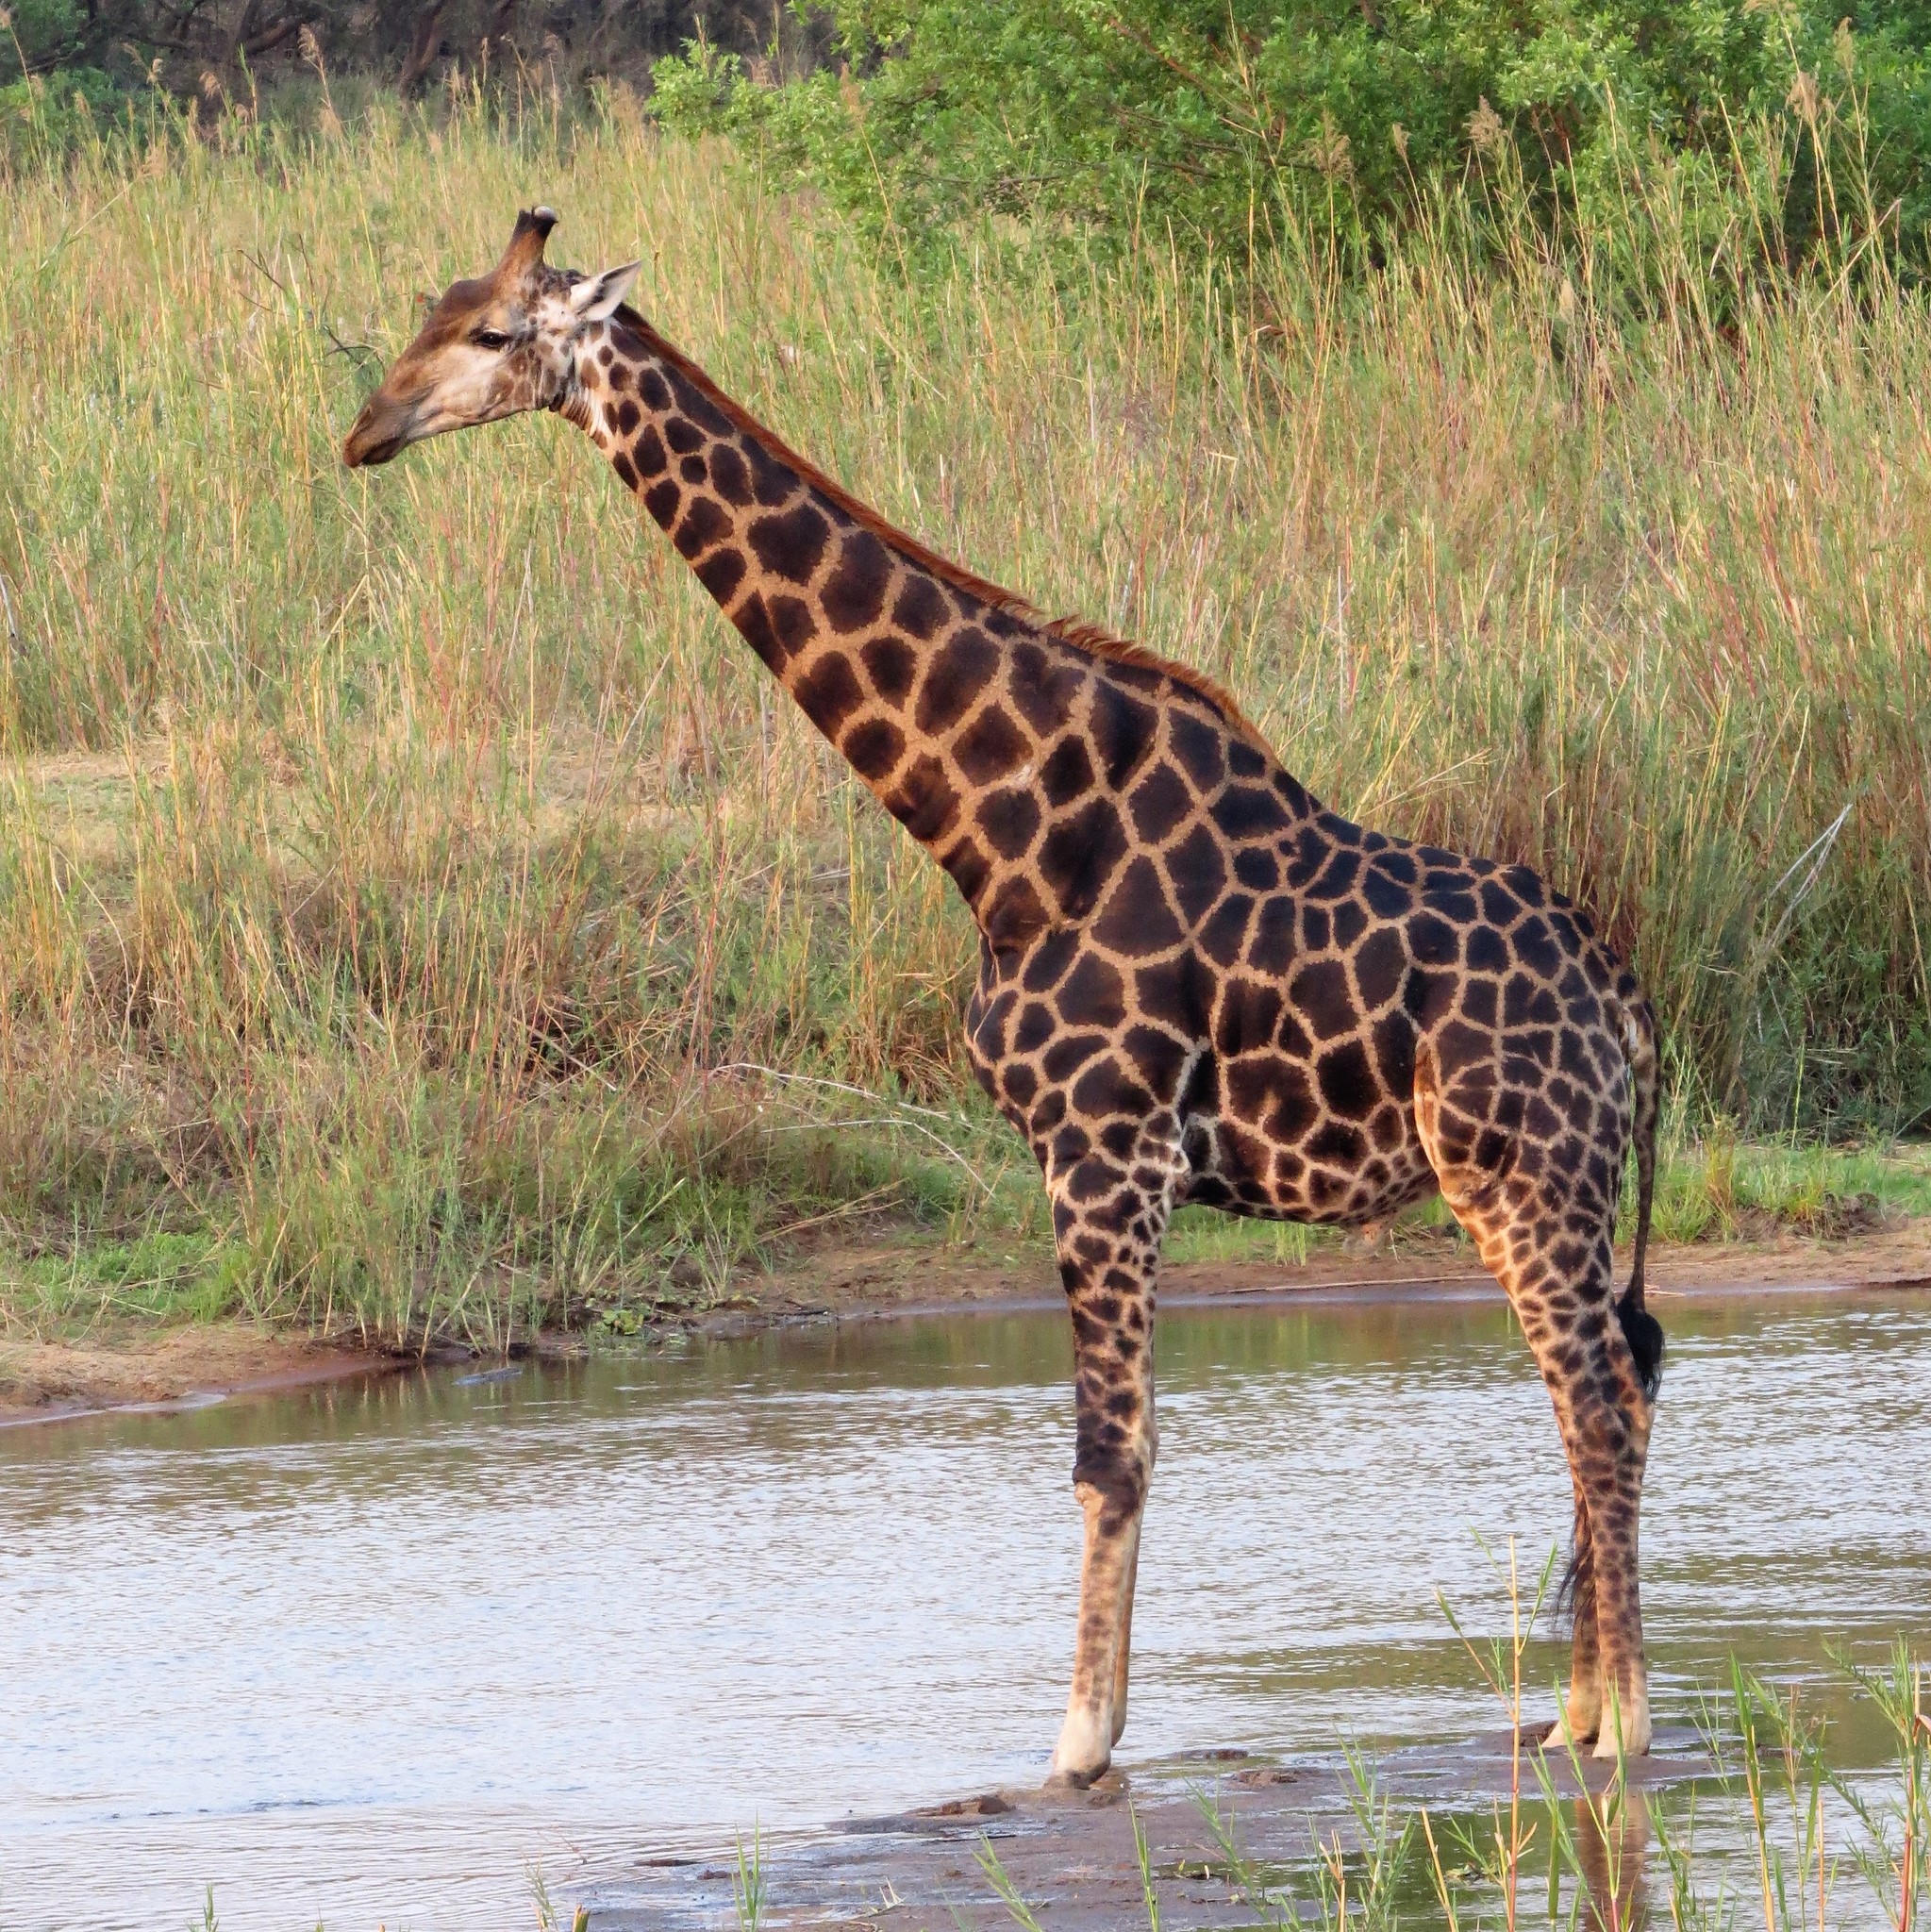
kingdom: Animalia
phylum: Chordata
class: Mammalia
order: Artiodactyla
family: Giraffidae
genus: Giraffa
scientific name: Giraffa giraffa
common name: Southern giraffe
